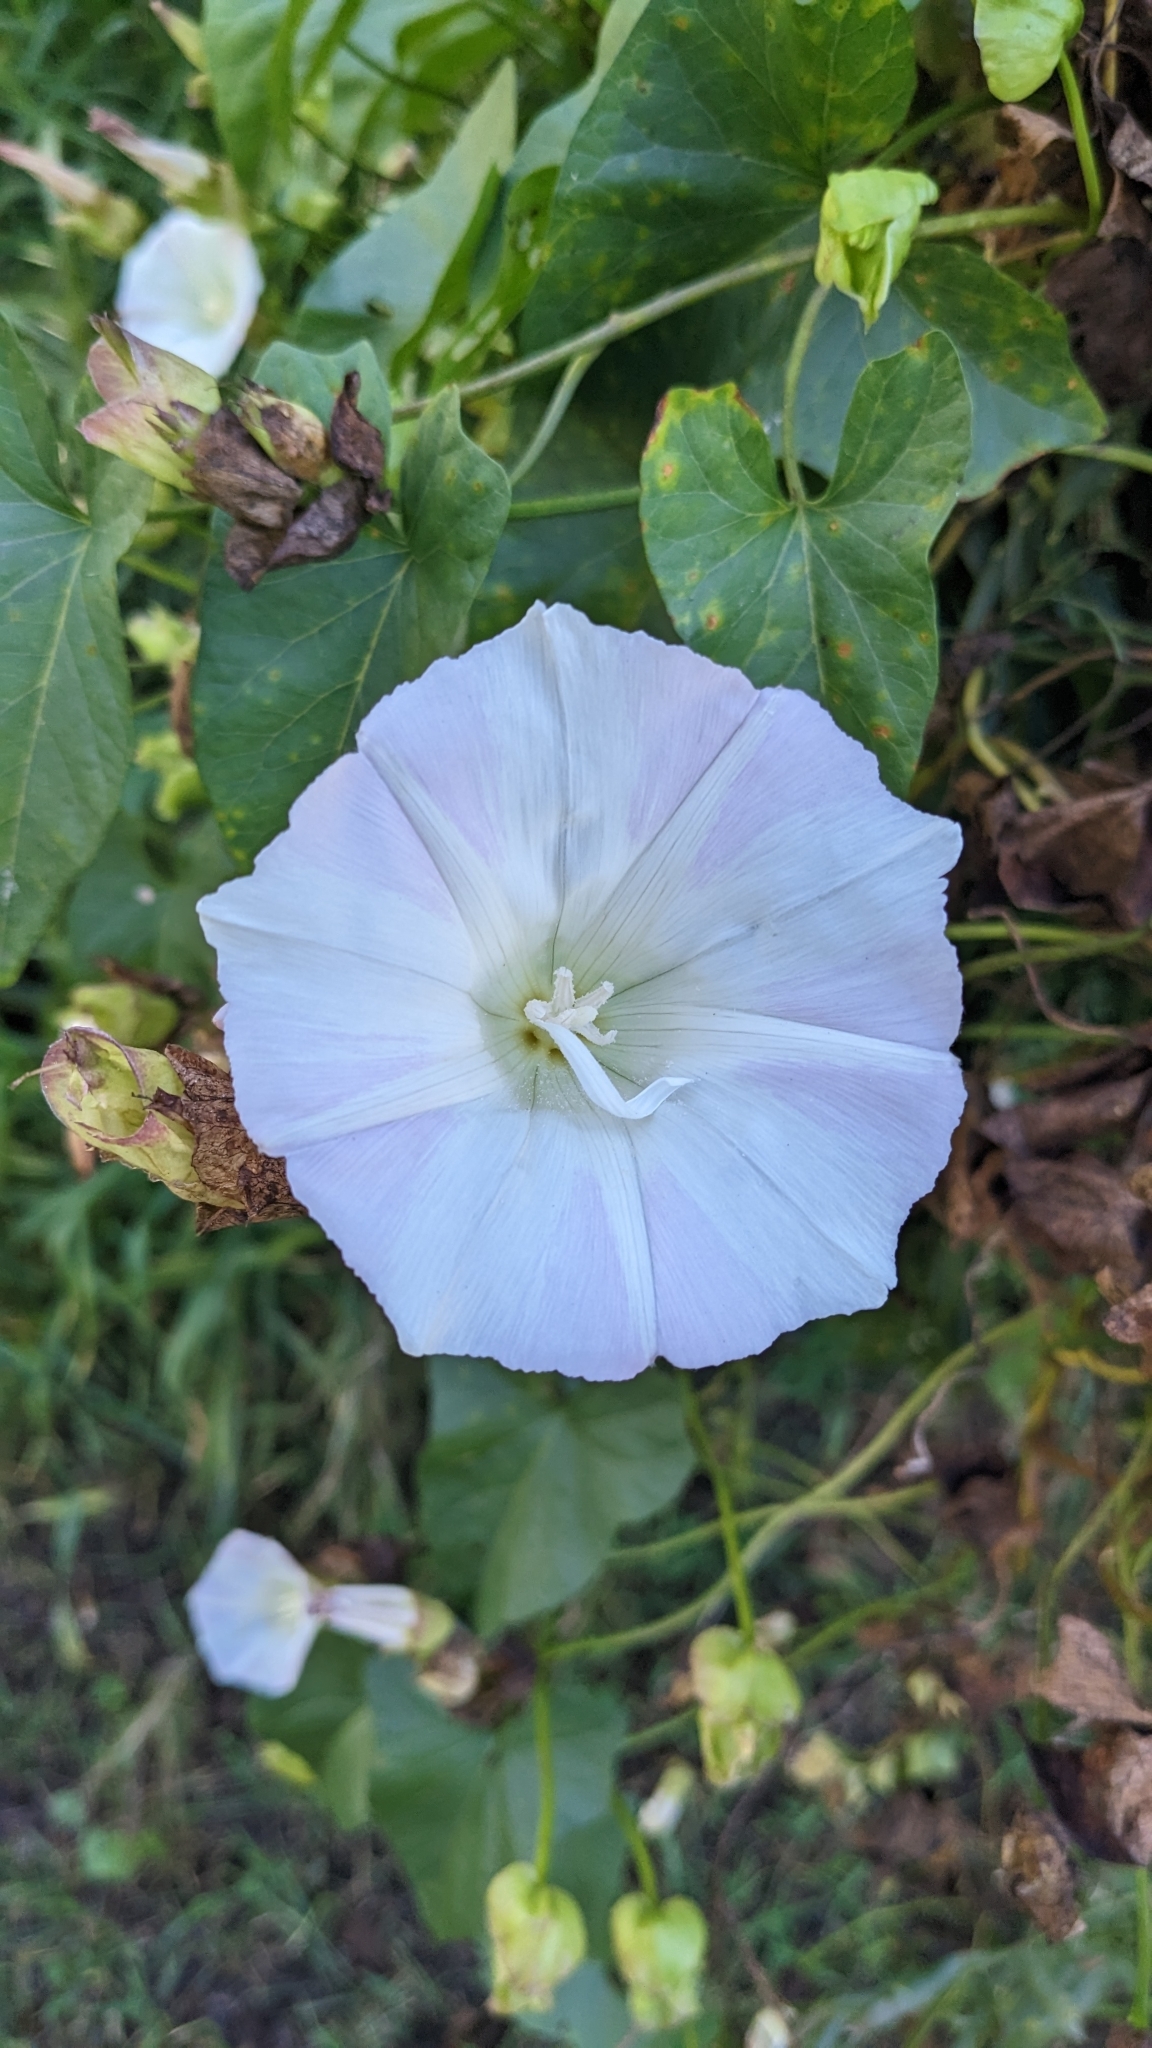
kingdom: Plantae
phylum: Tracheophyta
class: Magnoliopsida
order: Solanales
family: Convolvulaceae
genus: Calystegia
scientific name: Calystegia macrostegia
